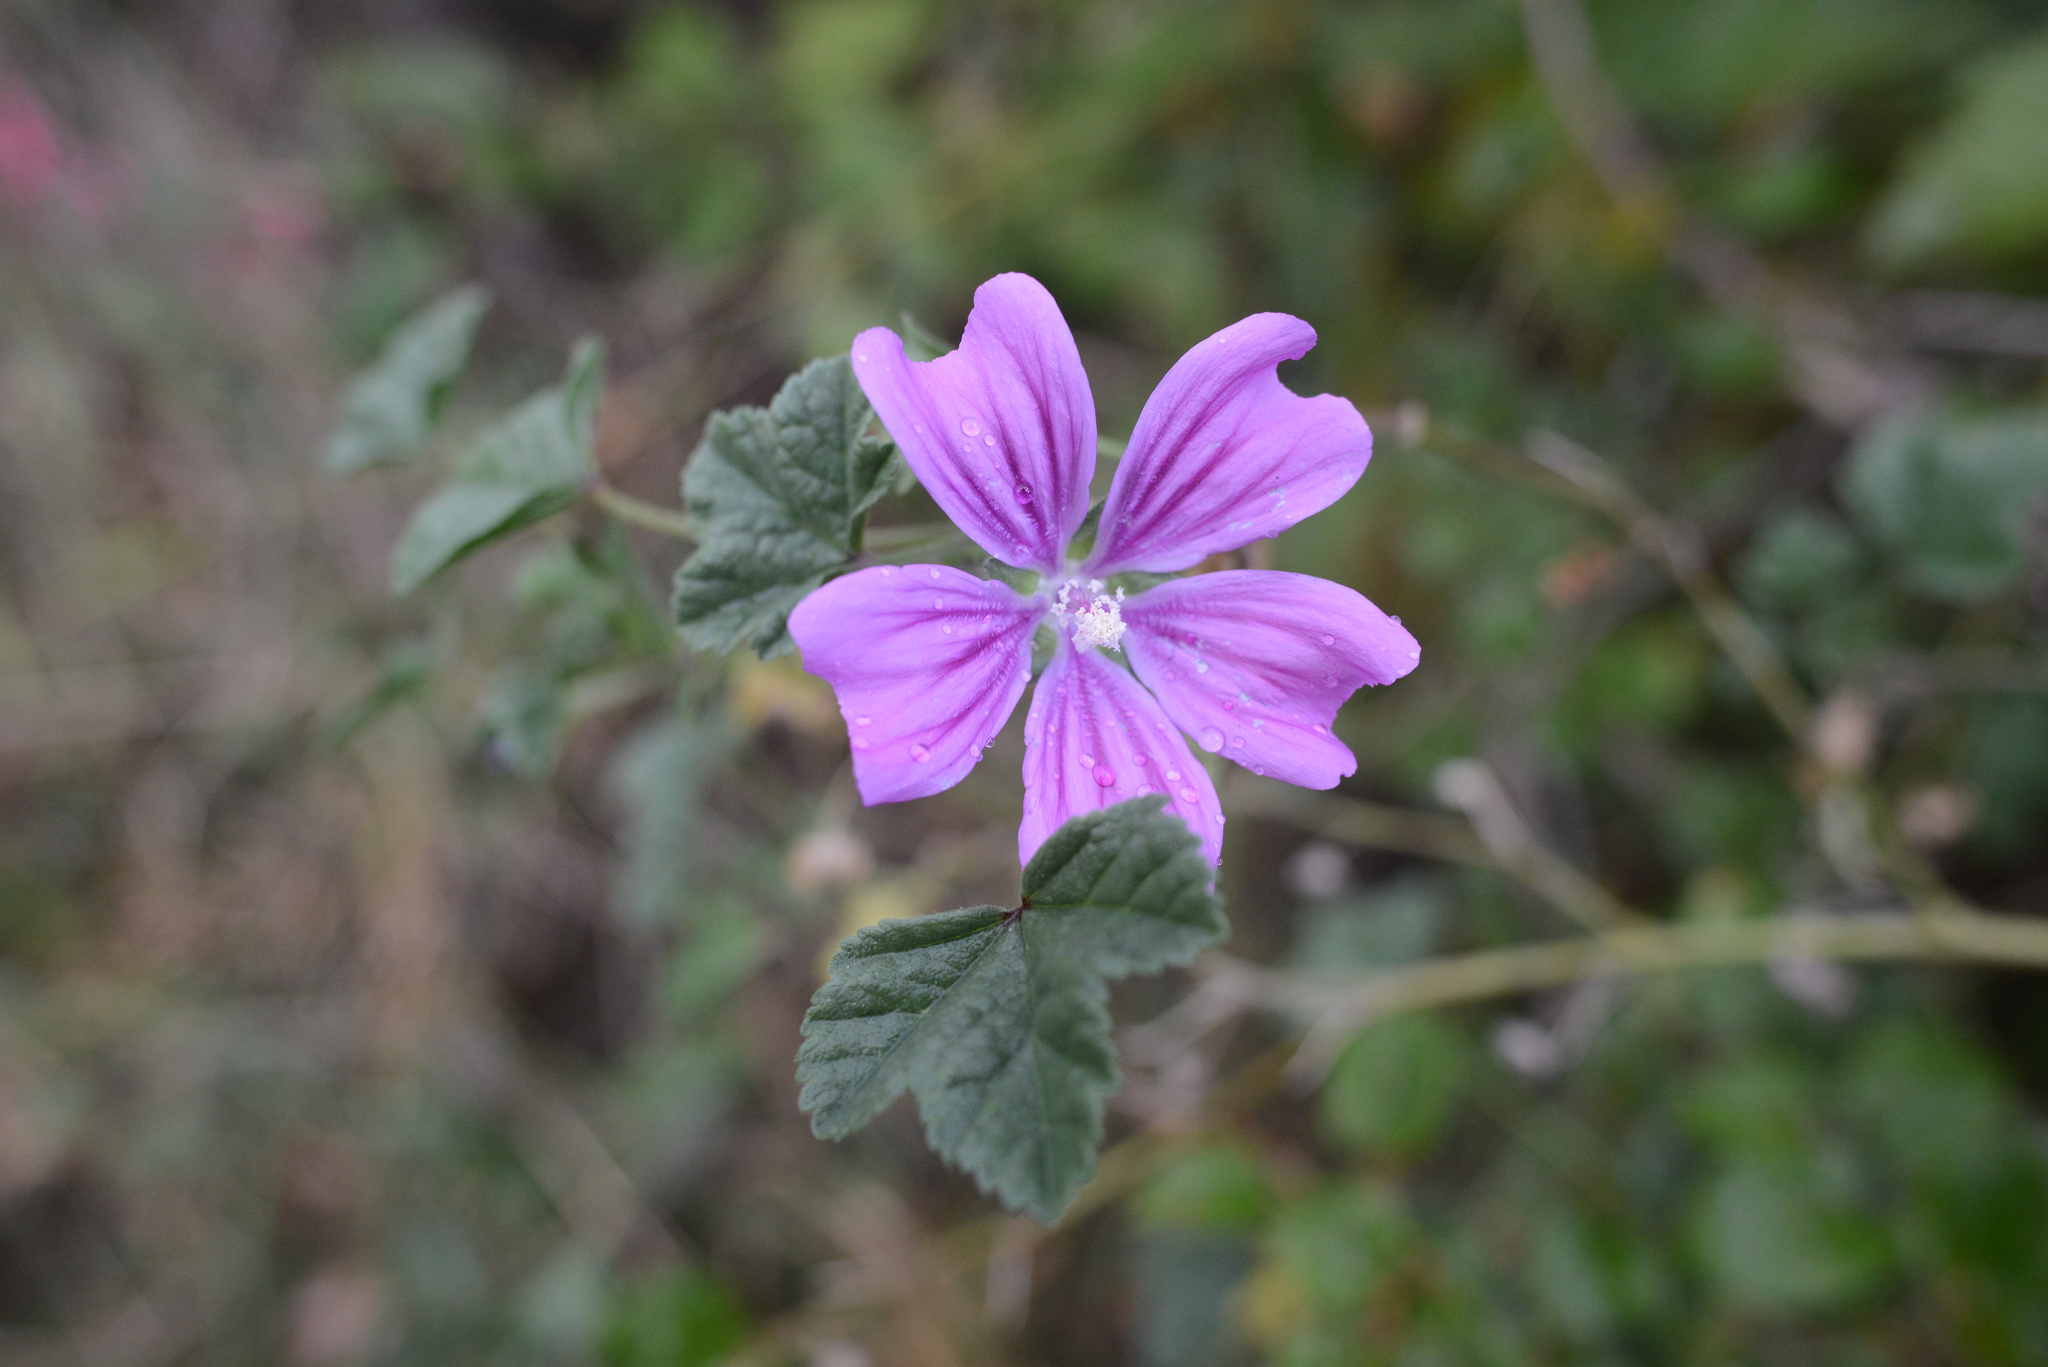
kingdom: Plantae
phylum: Tracheophyta
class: Magnoliopsida
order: Malvales
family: Malvaceae
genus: Malva
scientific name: Malva sylvestris
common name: Common mallow
